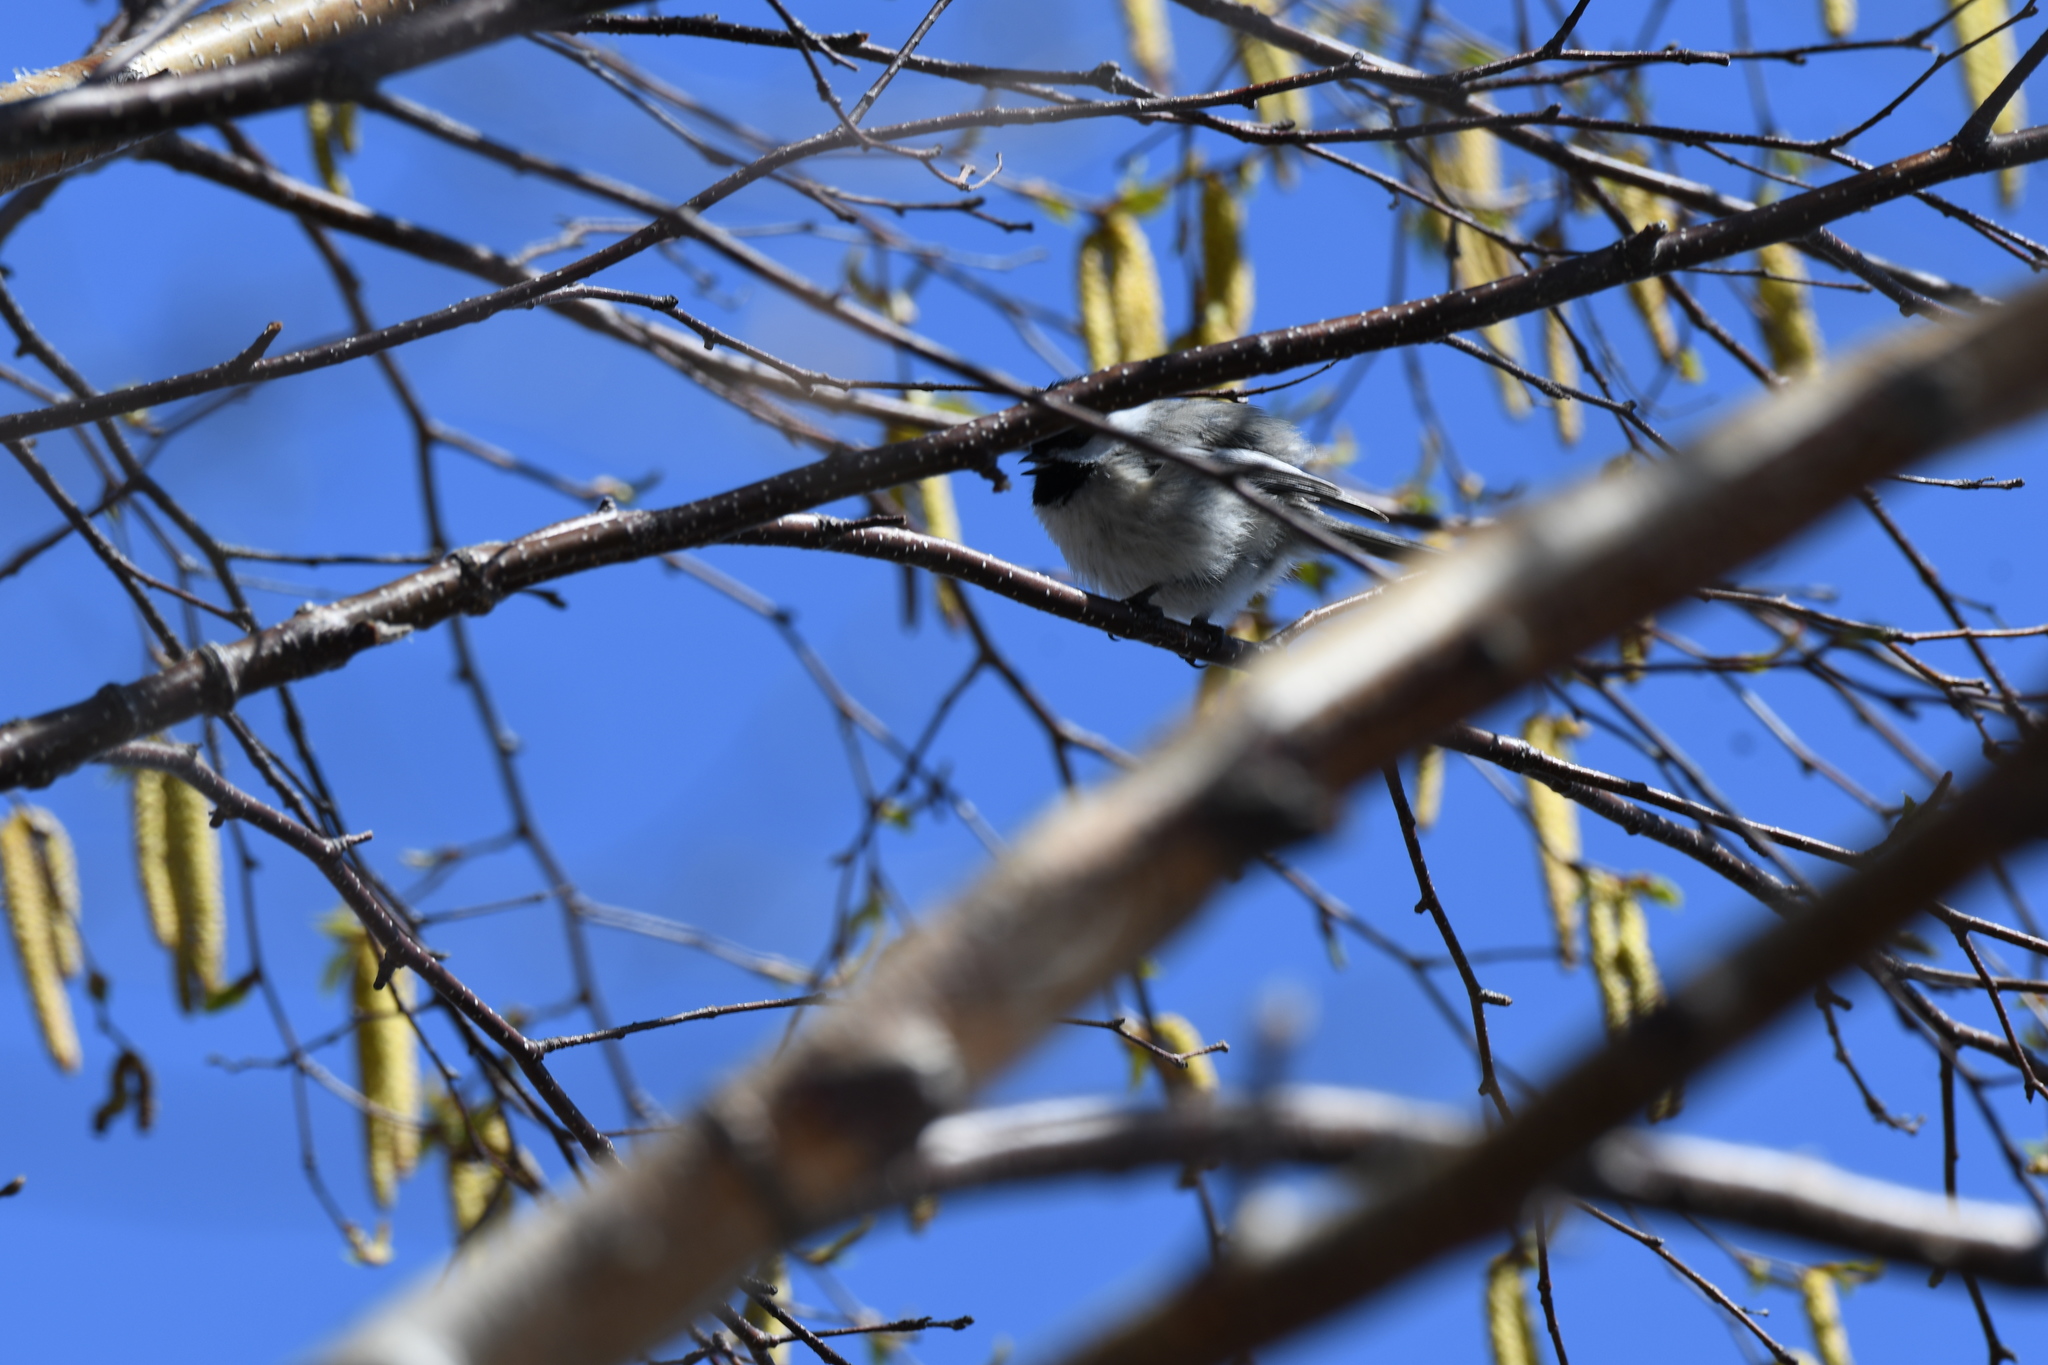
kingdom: Animalia
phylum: Chordata
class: Aves
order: Passeriformes
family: Paridae
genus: Poecile
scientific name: Poecile atricapillus
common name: Black-capped chickadee
